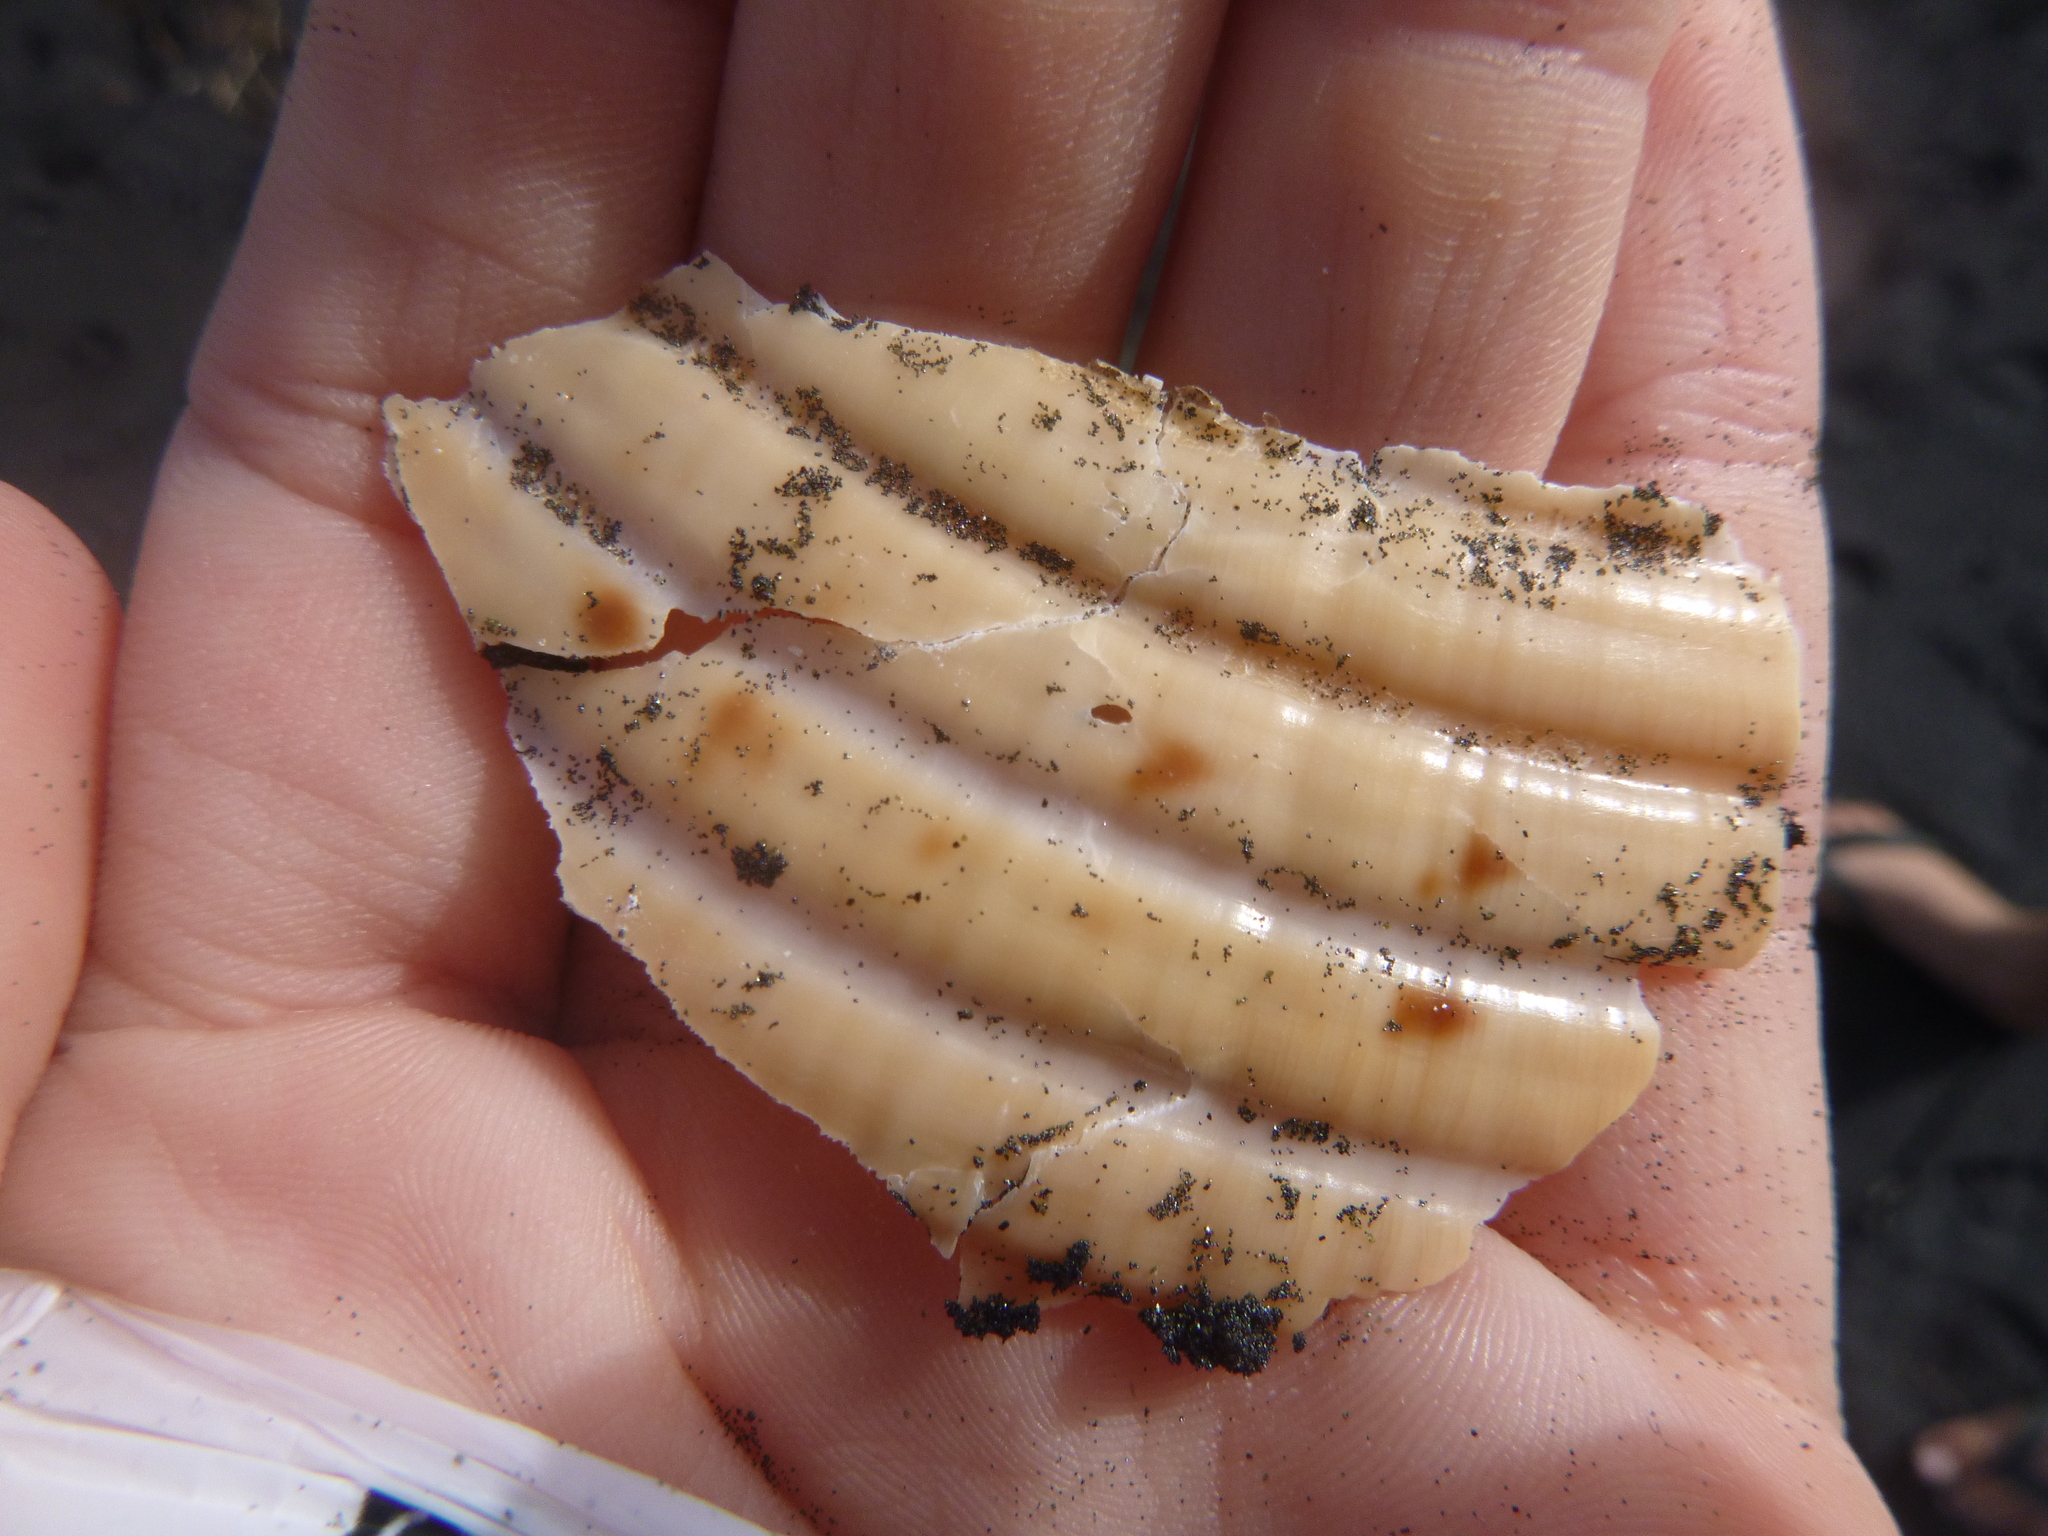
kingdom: Animalia
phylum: Mollusca
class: Gastropoda
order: Littorinimorpha
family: Tonnidae
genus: Tonna
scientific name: Tonna tankervillii
